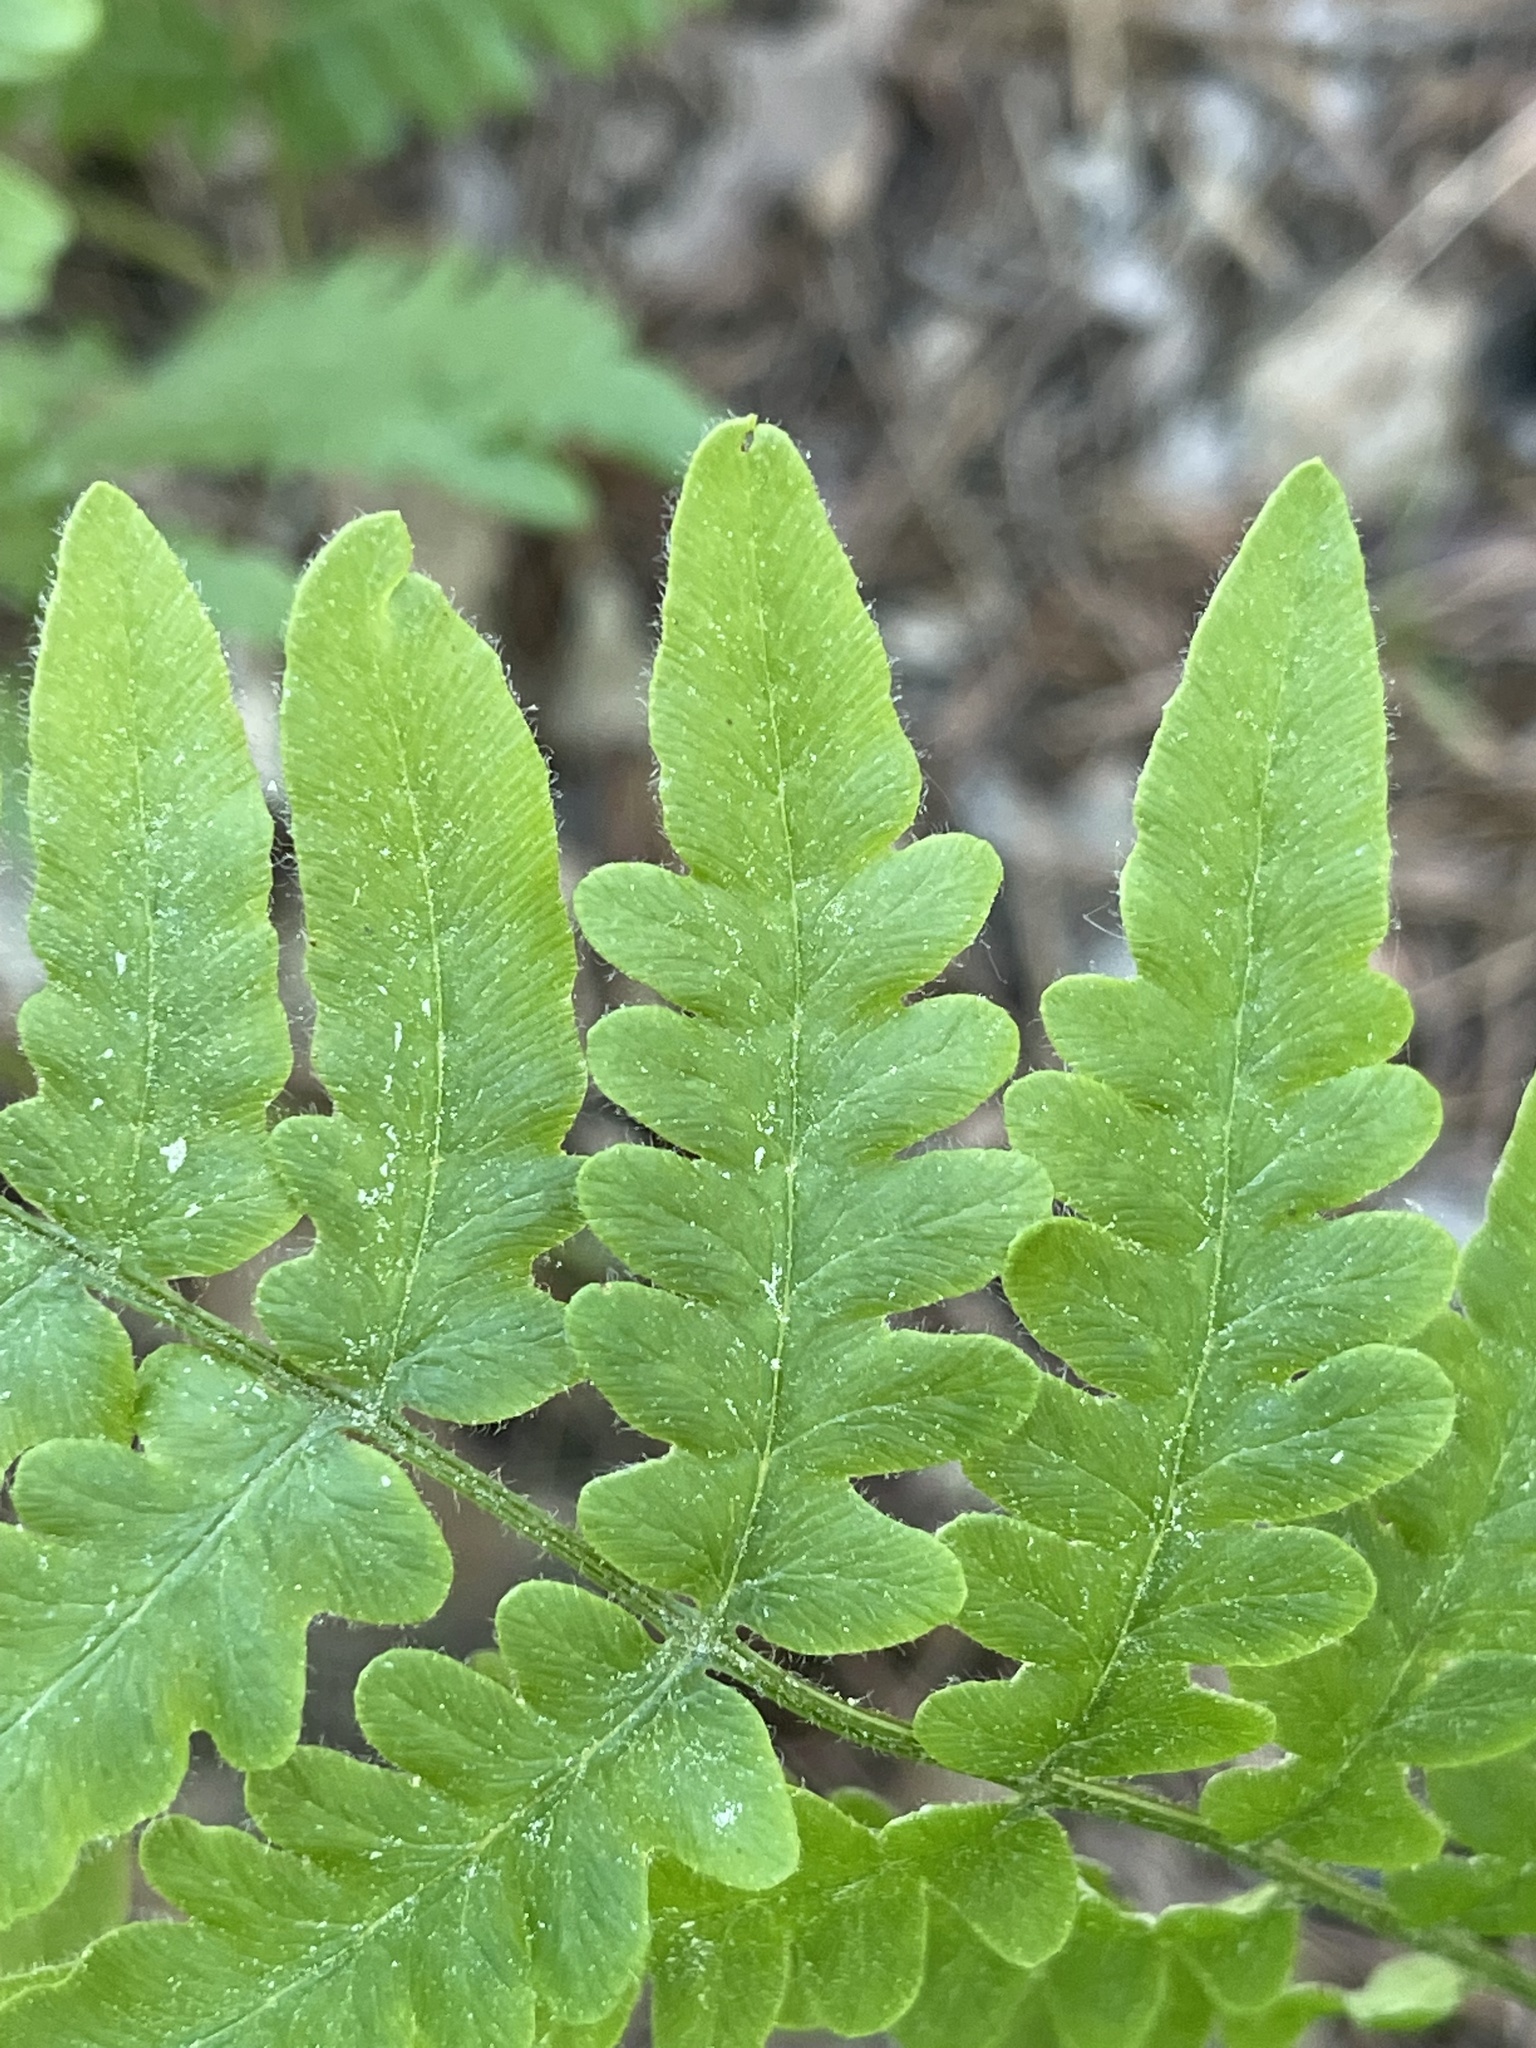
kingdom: Plantae
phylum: Tracheophyta
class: Polypodiopsida
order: Polypodiales
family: Dennstaedtiaceae
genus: Pteridium
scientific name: Pteridium aquilinum
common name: Bracken
